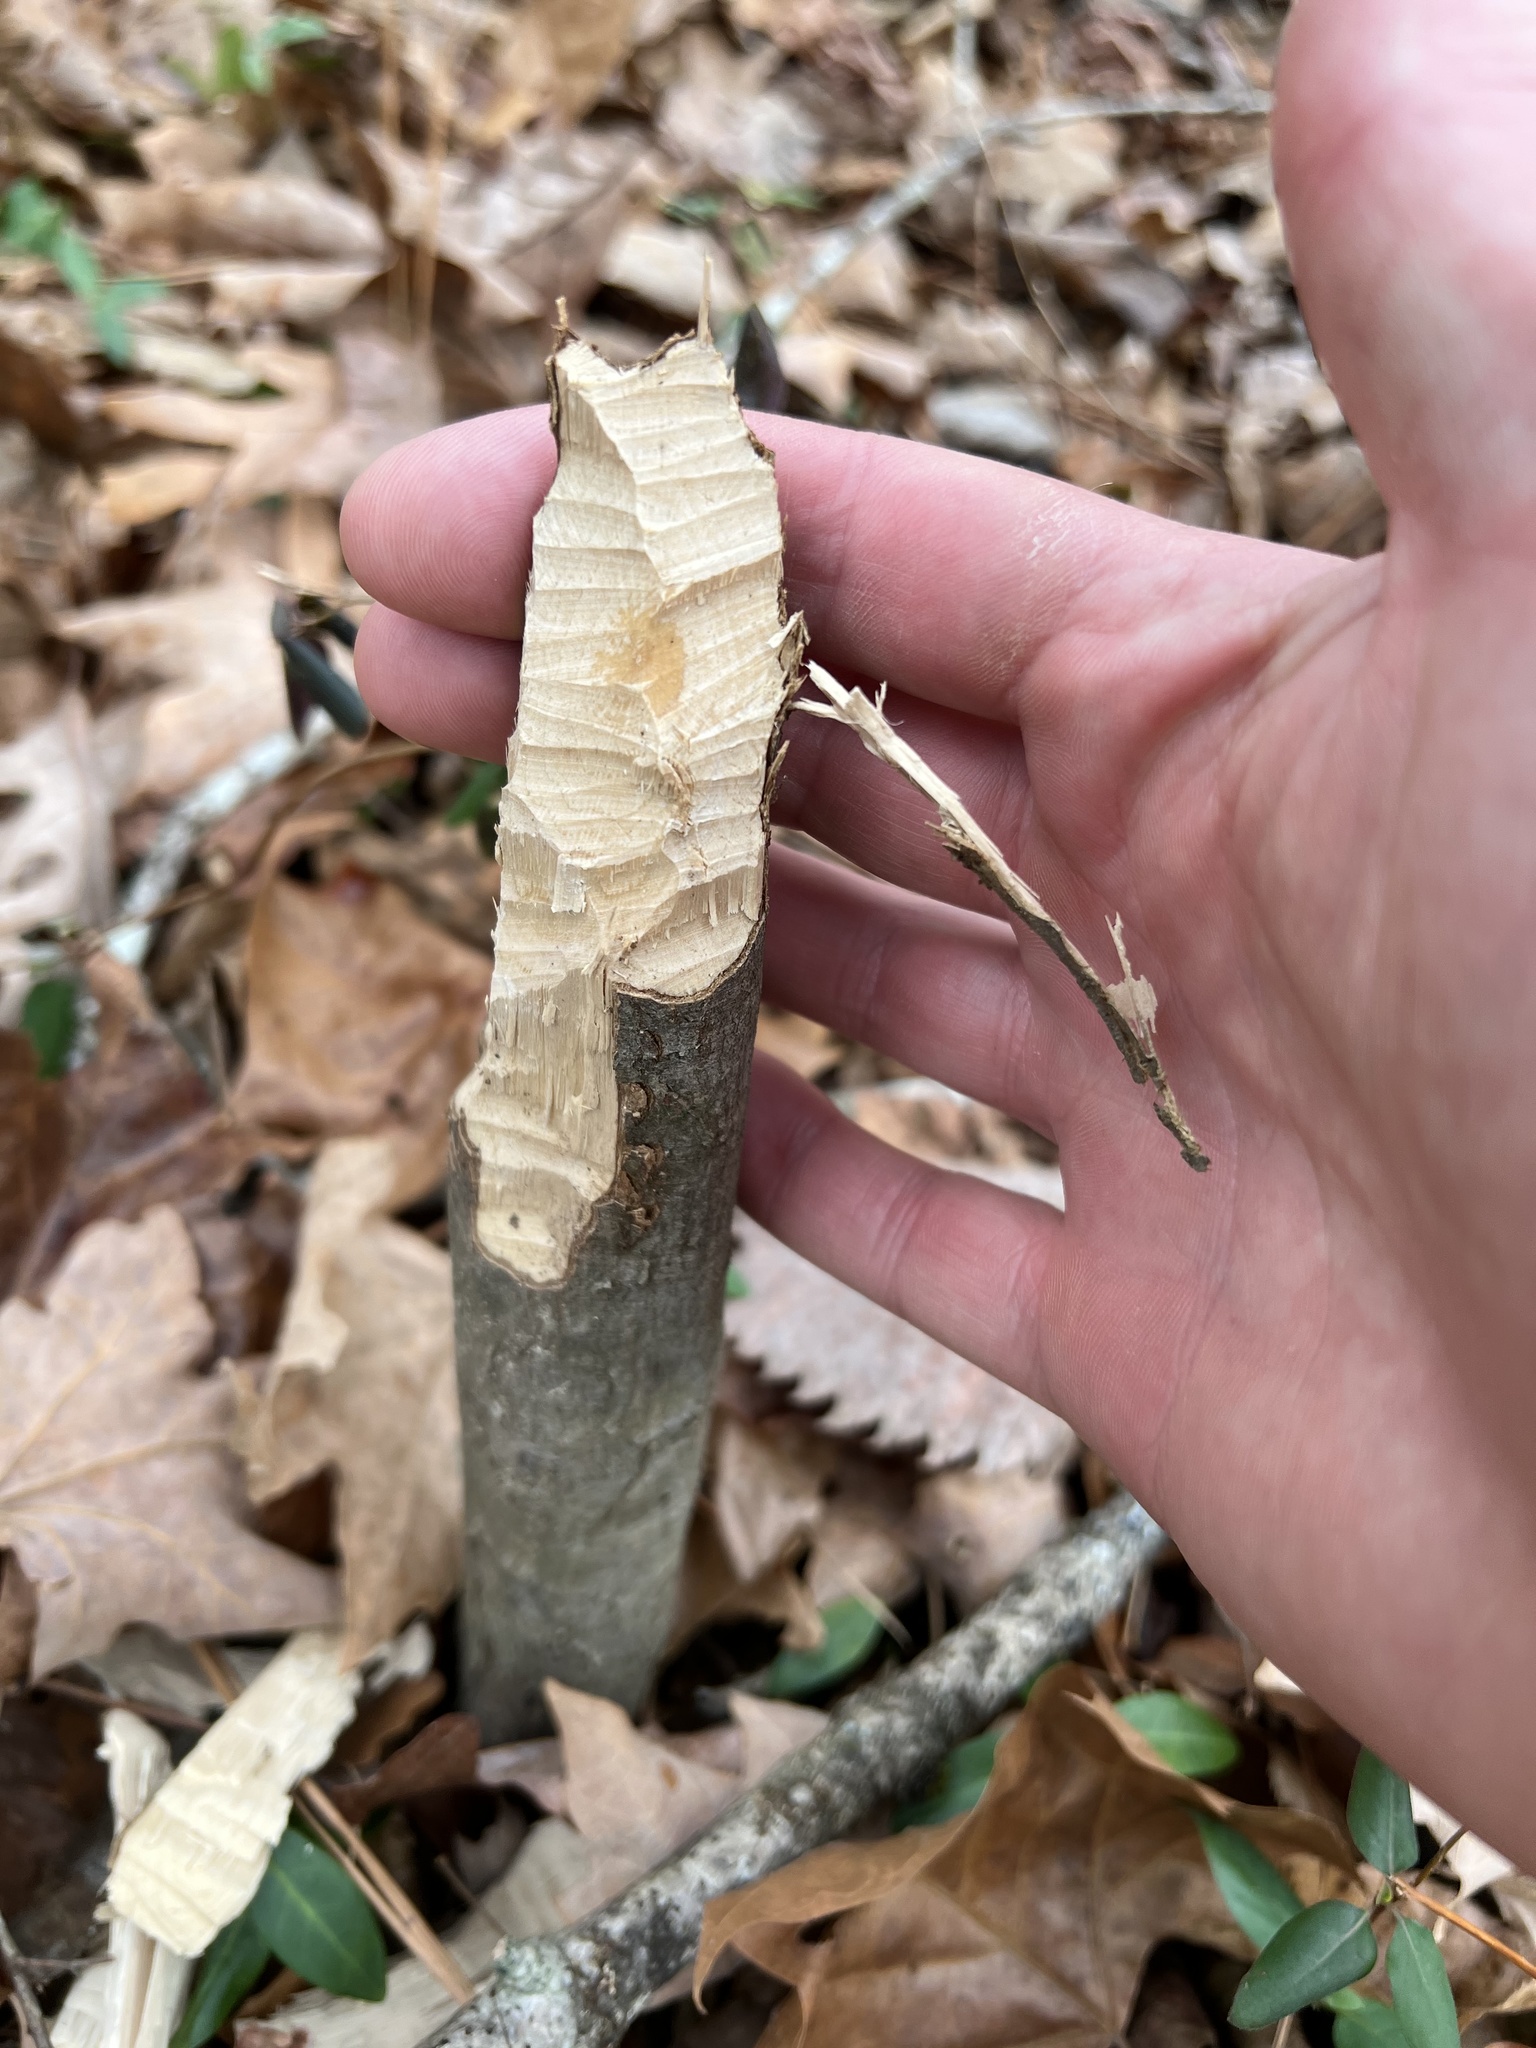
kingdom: Animalia
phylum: Chordata
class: Mammalia
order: Rodentia
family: Castoridae
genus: Castor
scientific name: Castor canadensis
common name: American beaver
